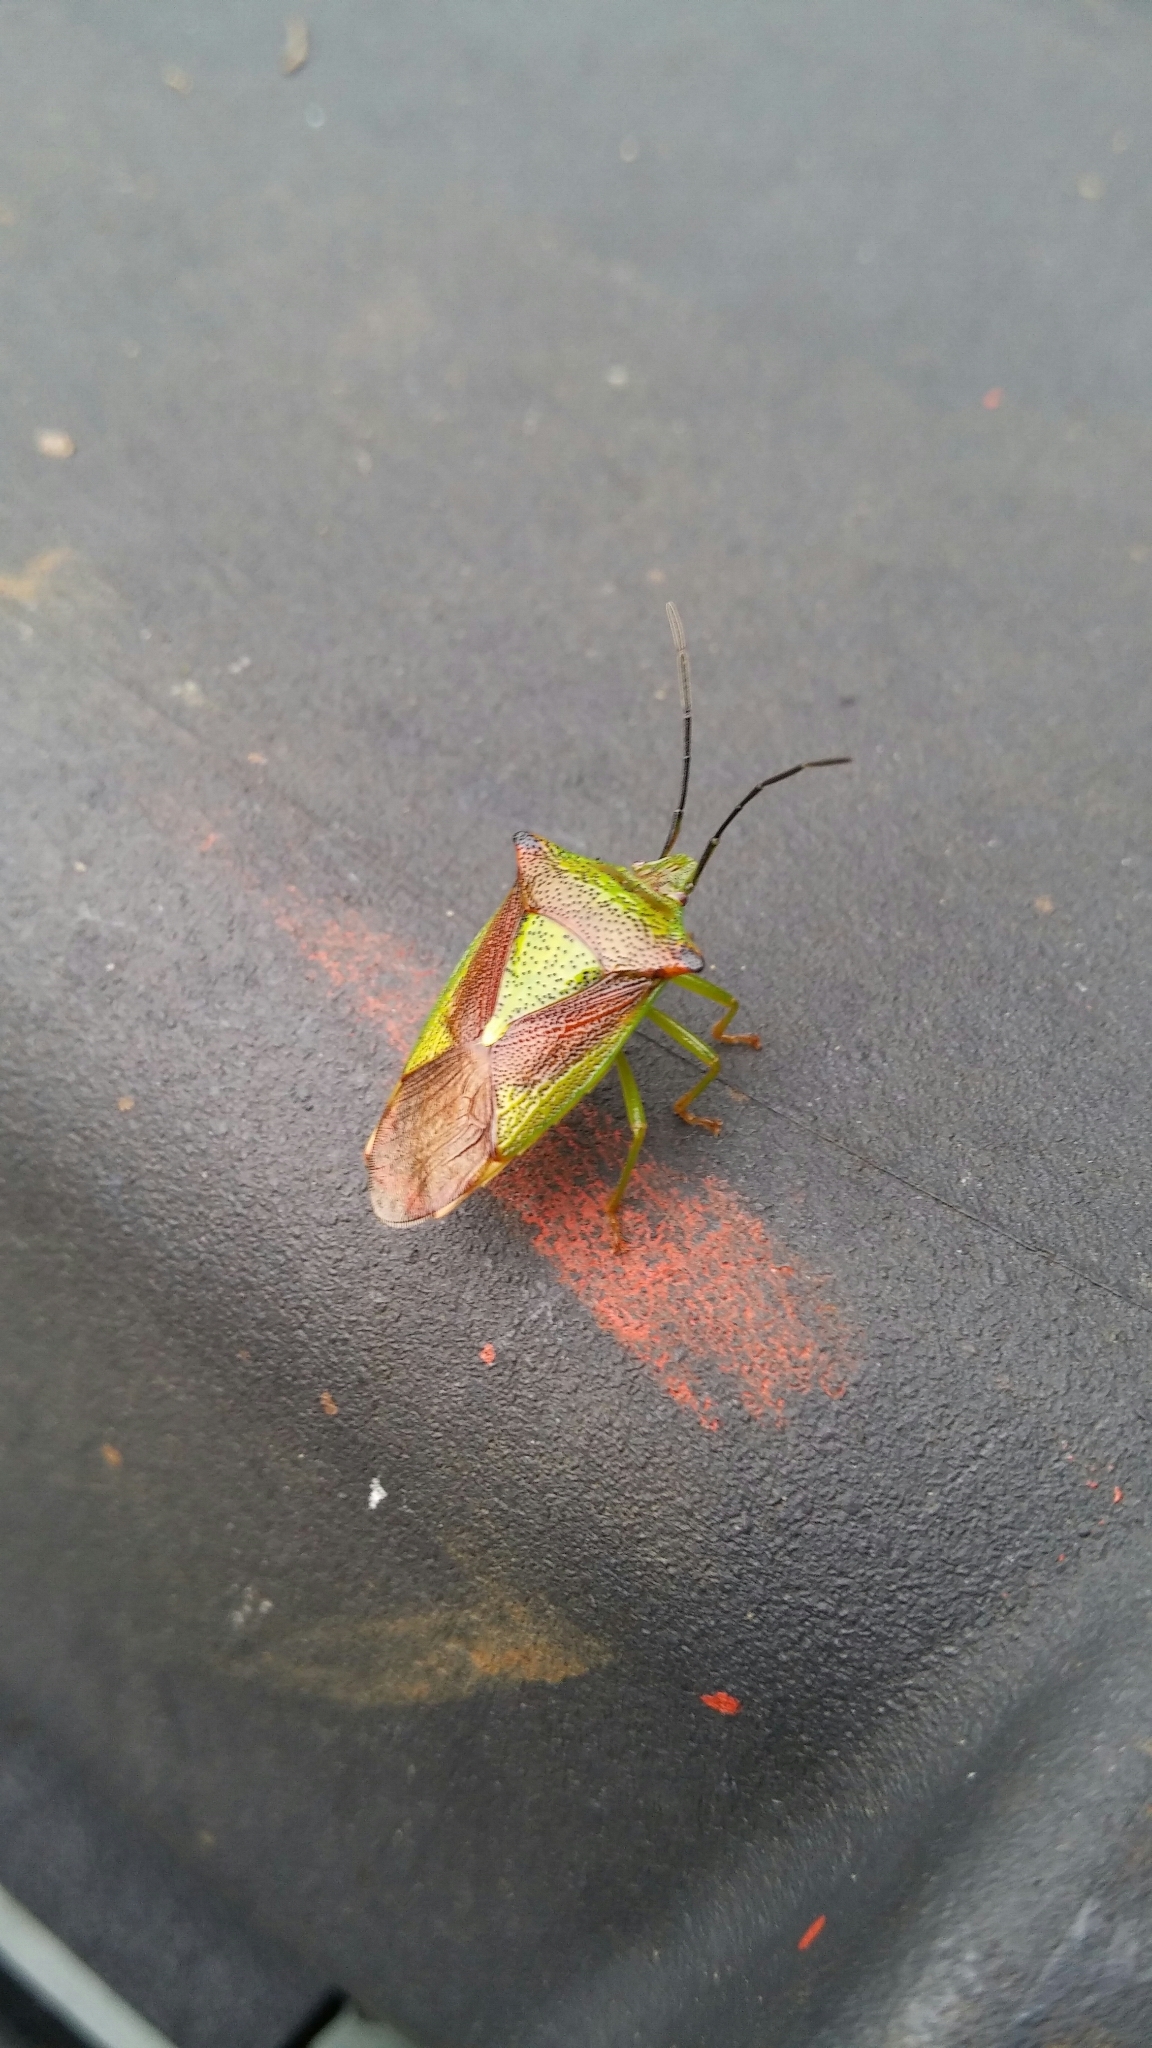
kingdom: Animalia
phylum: Arthropoda
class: Insecta
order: Hemiptera
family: Acanthosomatidae
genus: Acanthosoma
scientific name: Acanthosoma haemorrhoidale
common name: Hawthorn shieldbug
